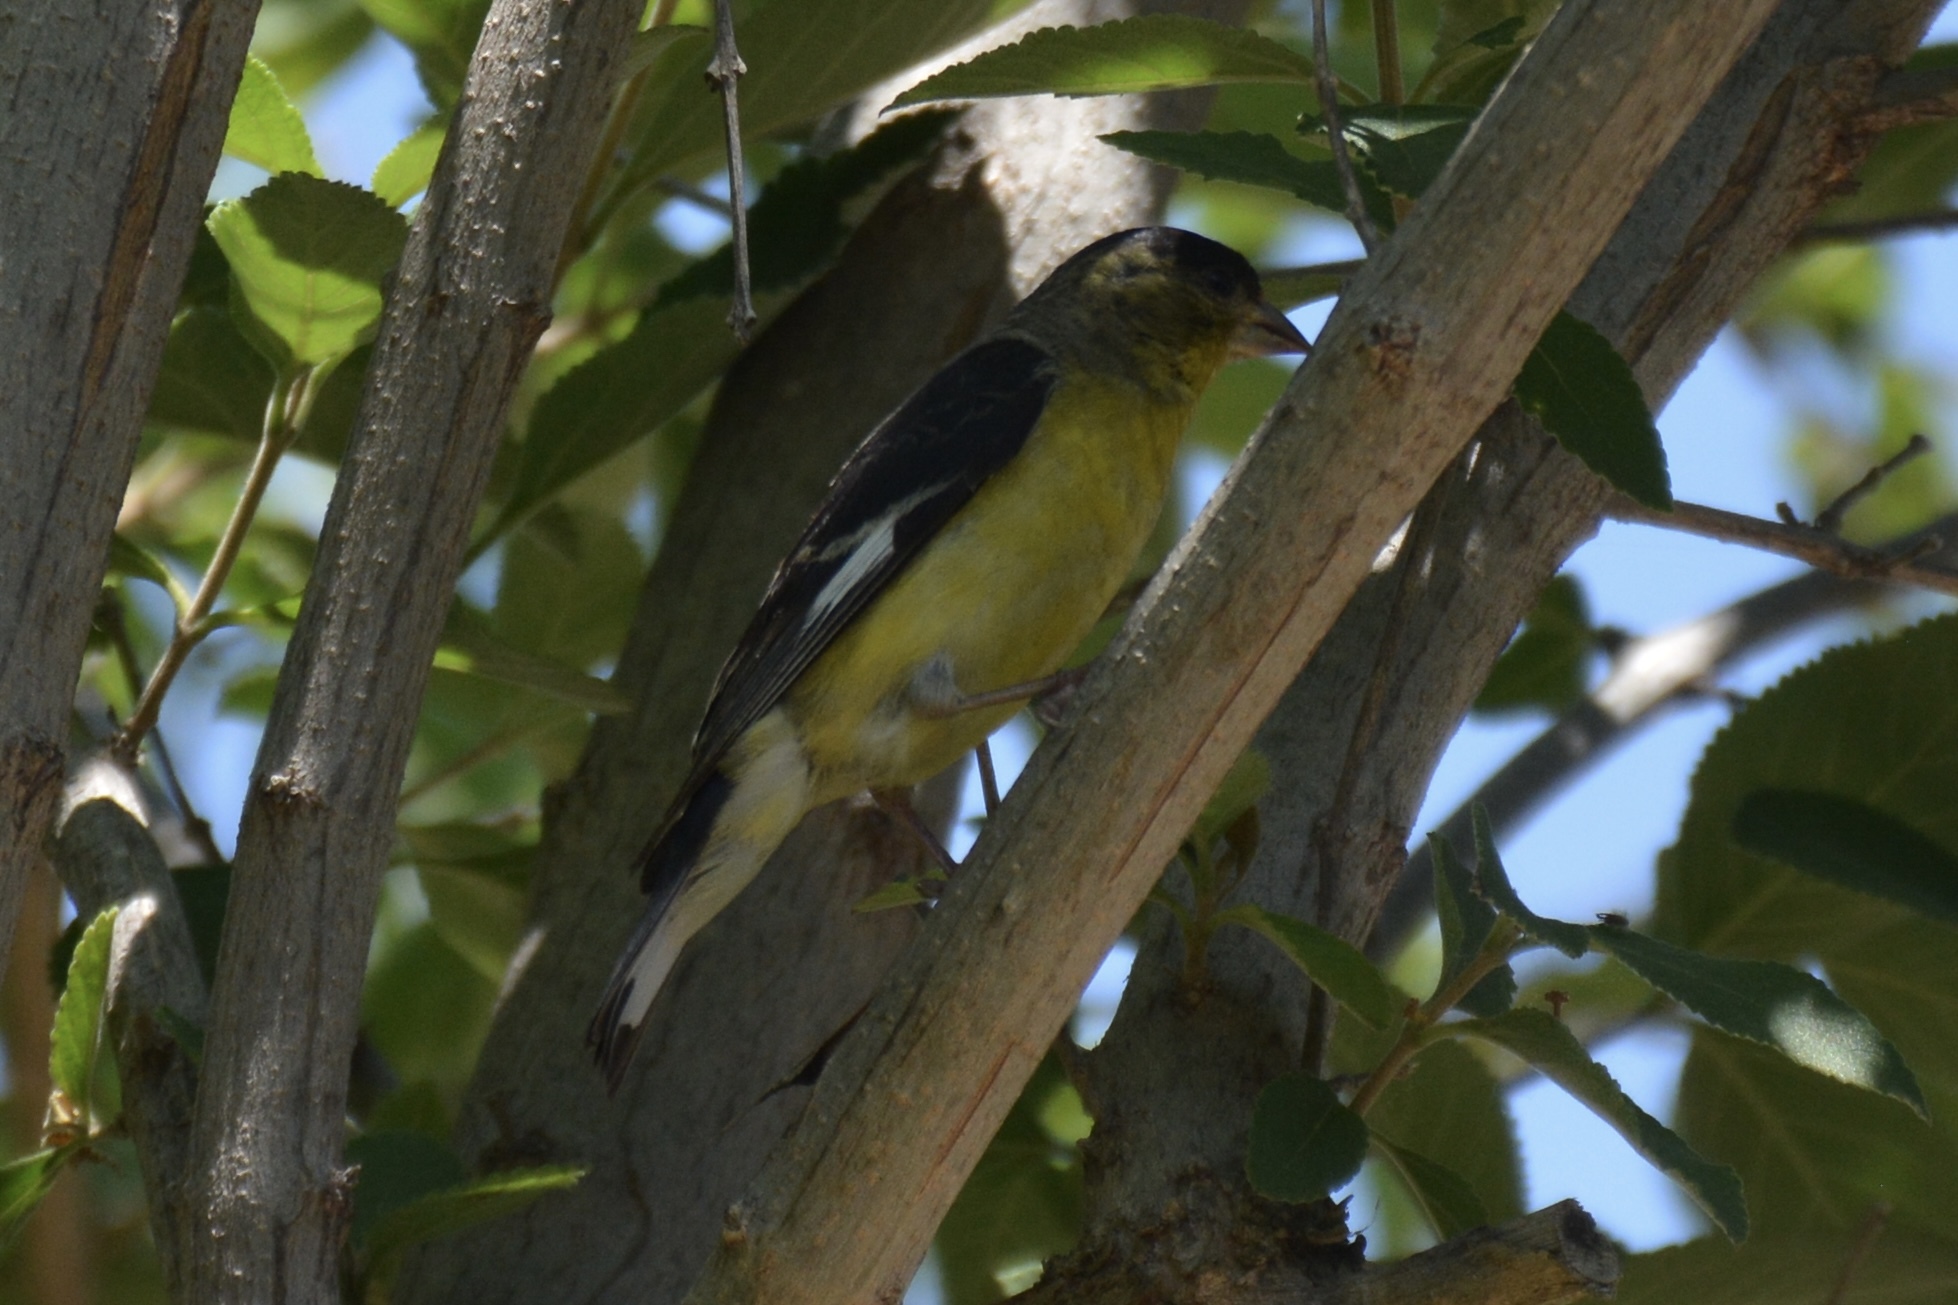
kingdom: Animalia
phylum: Chordata
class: Aves
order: Passeriformes
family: Fringillidae
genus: Spinus
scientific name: Spinus psaltria
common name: Lesser goldfinch
